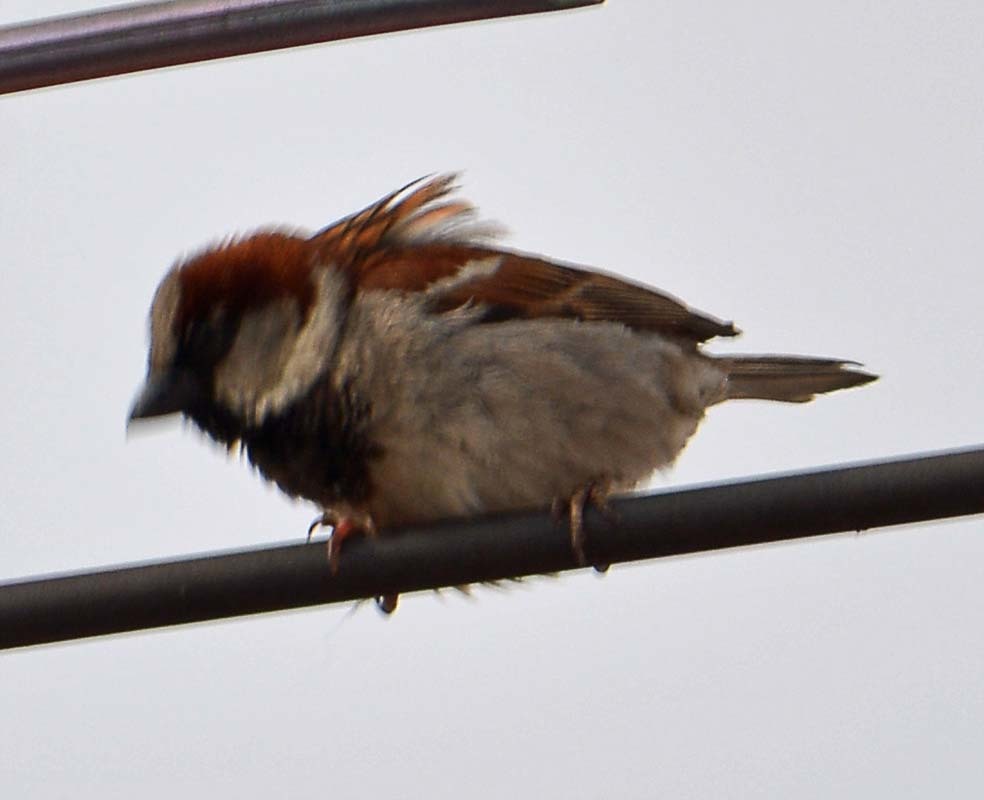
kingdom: Animalia
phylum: Chordata
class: Aves
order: Passeriformes
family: Passeridae
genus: Passer
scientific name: Passer domesticus
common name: House sparrow
